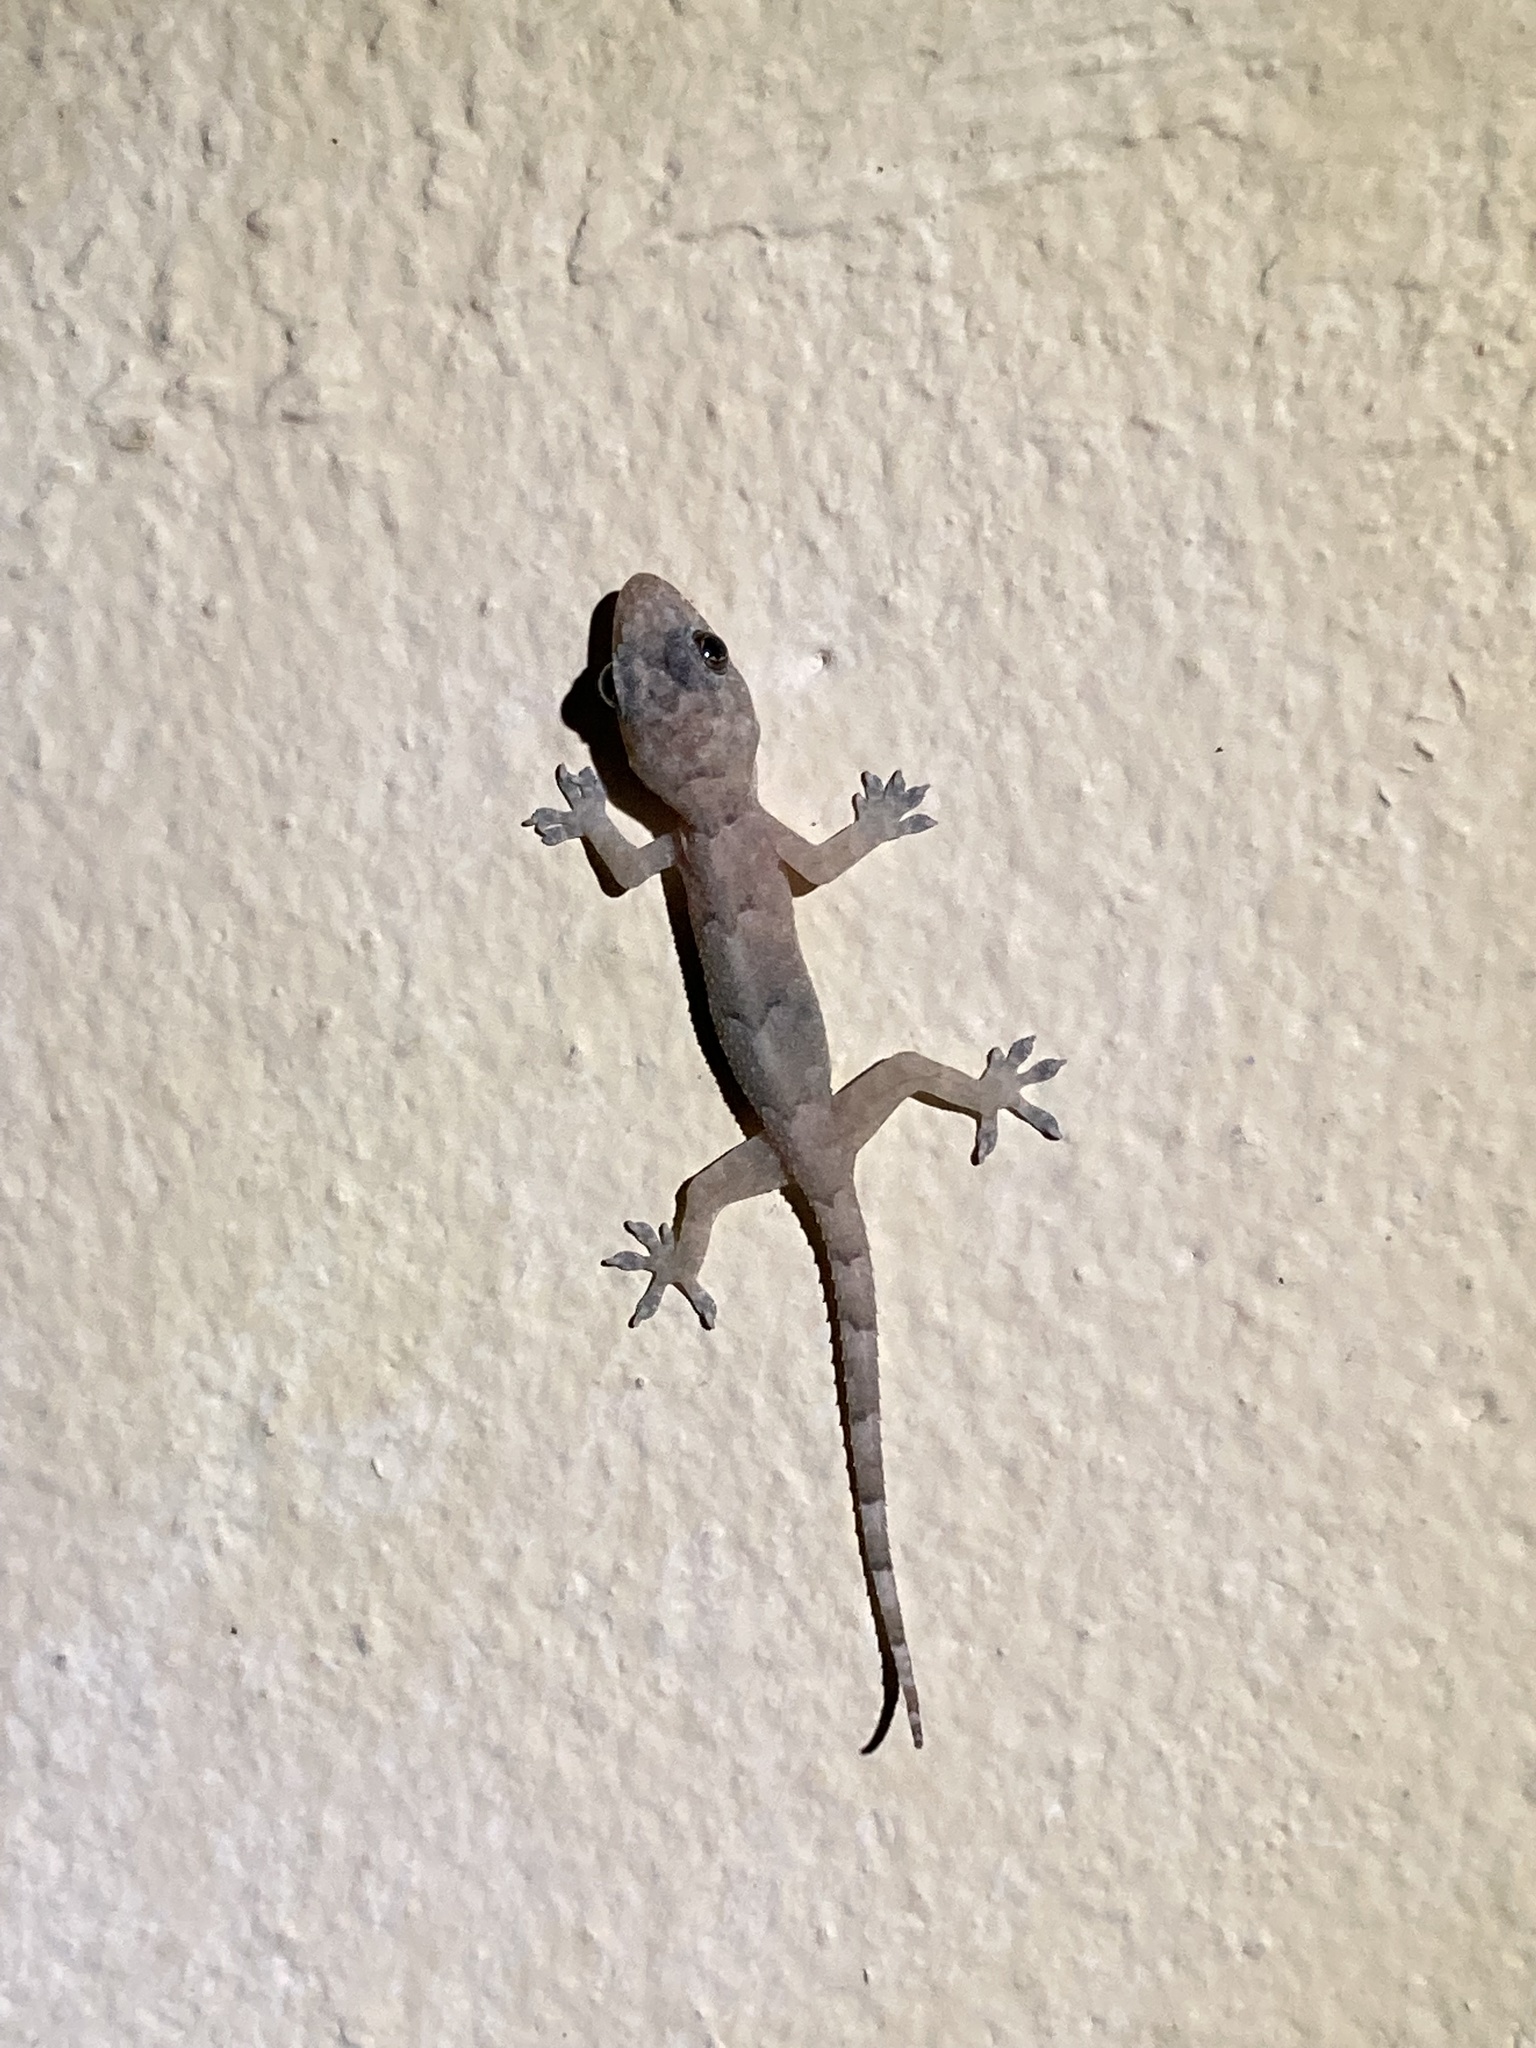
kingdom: Animalia
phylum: Chordata
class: Squamata
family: Gekkonidae
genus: Hemidactylus
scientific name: Hemidactylus mabouia
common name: House gecko
